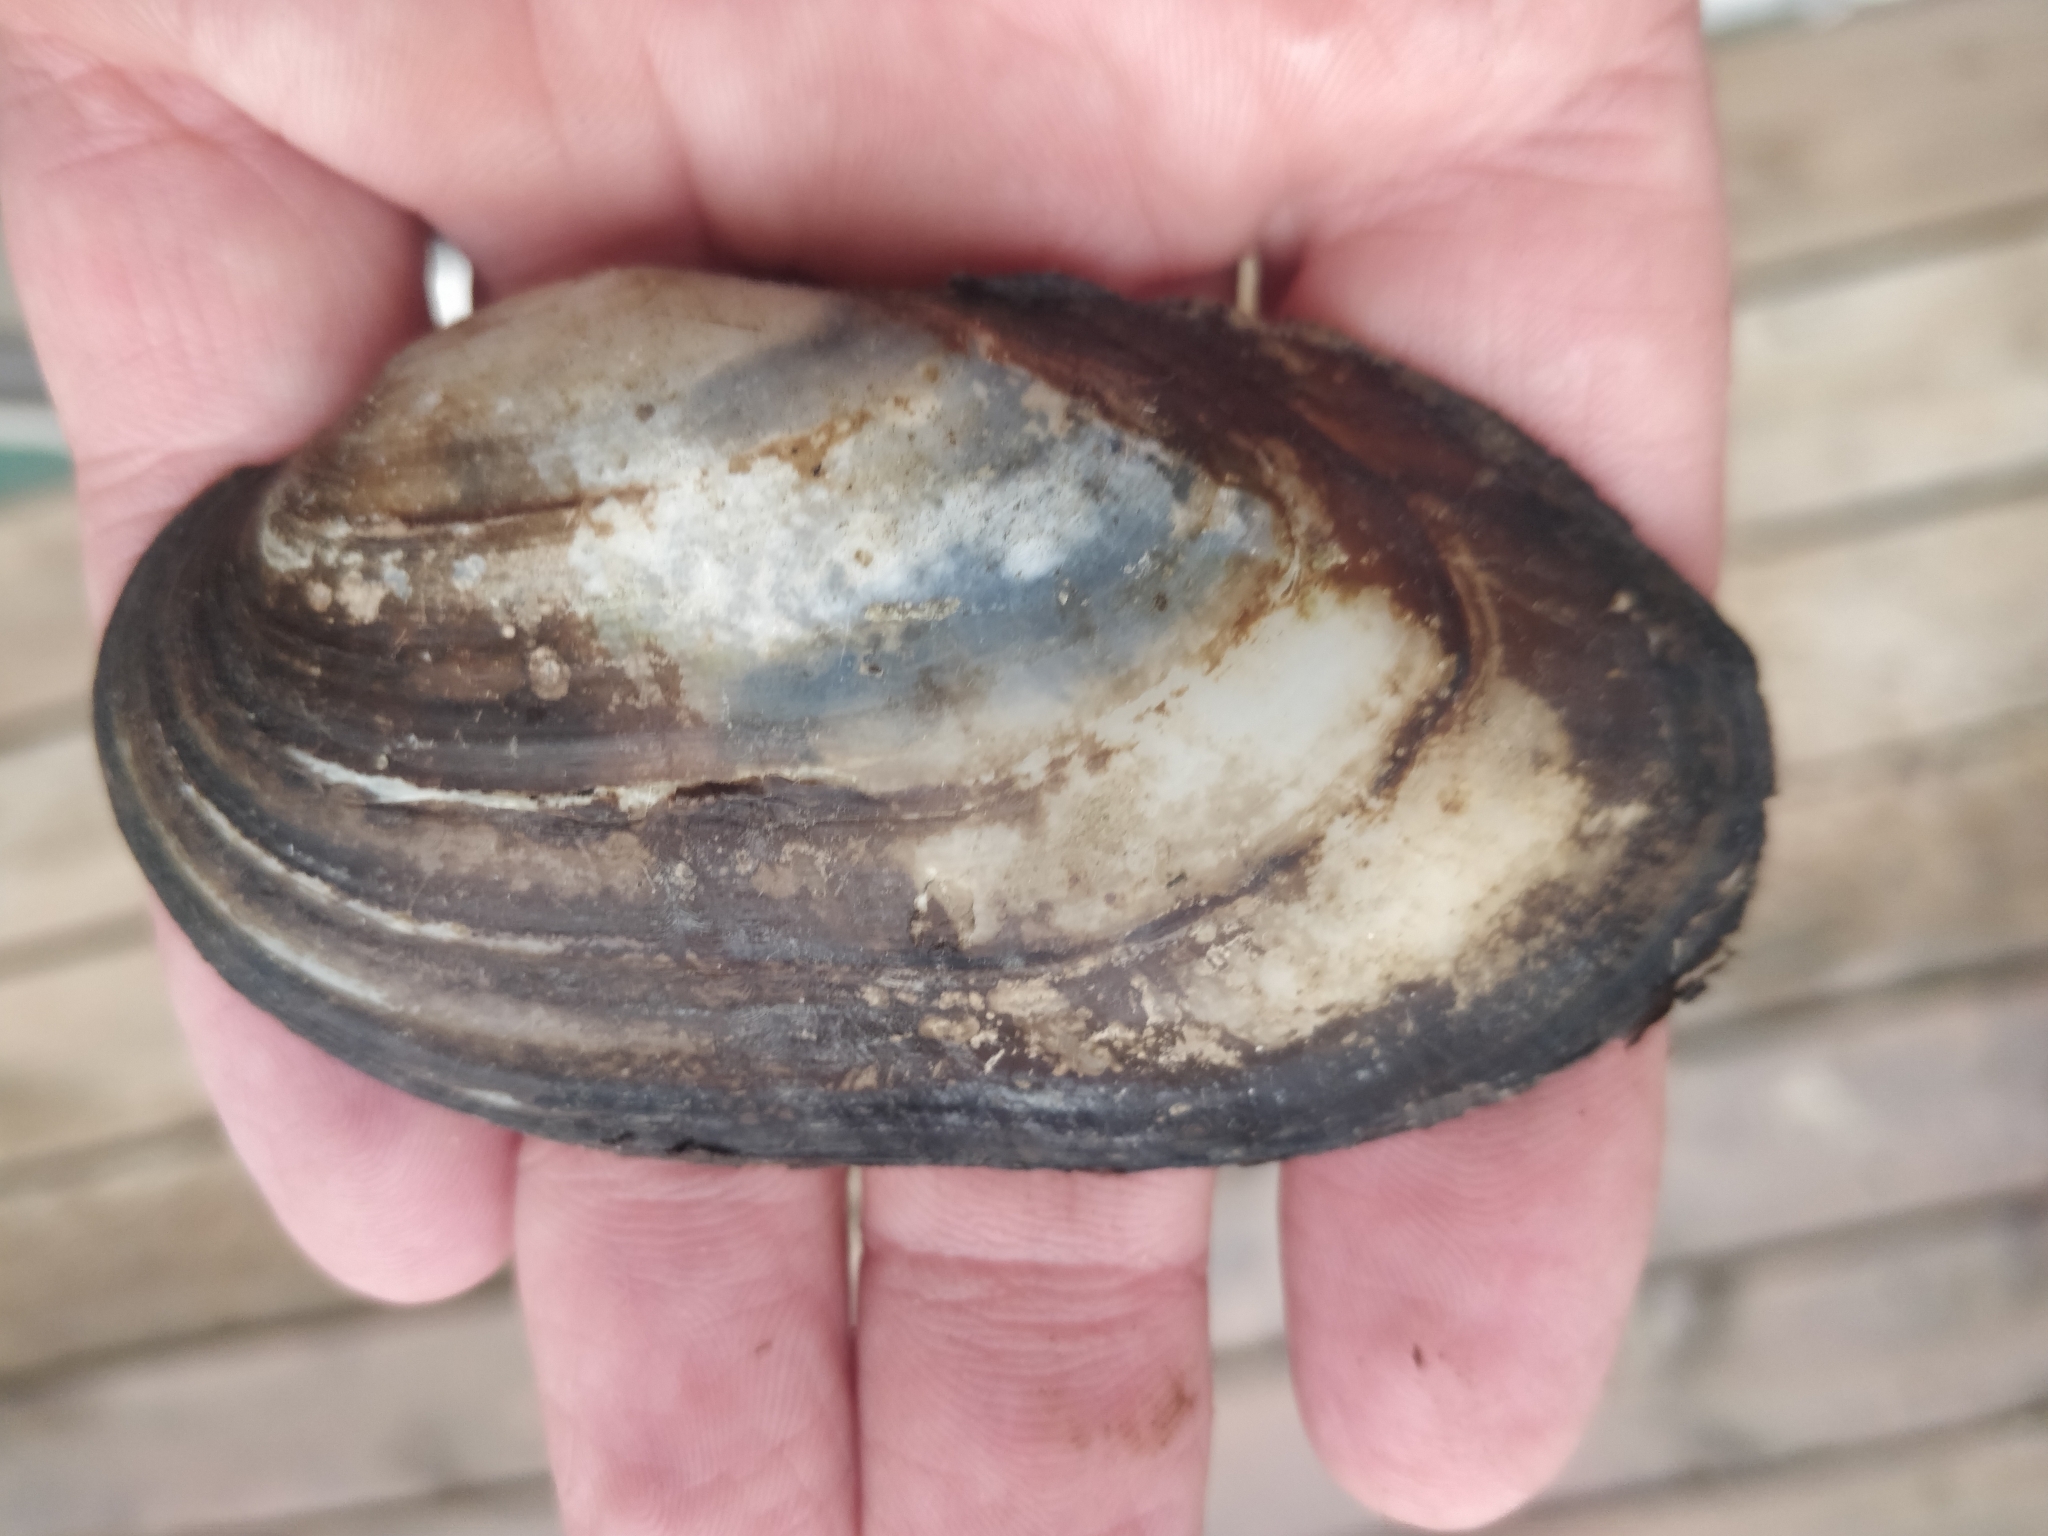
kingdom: Animalia
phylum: Mollusca
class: Bivalvia
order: Unionida
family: Unionidae
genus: Lampsilis
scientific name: Lampsilis siliquoidea
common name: Fatmucket
